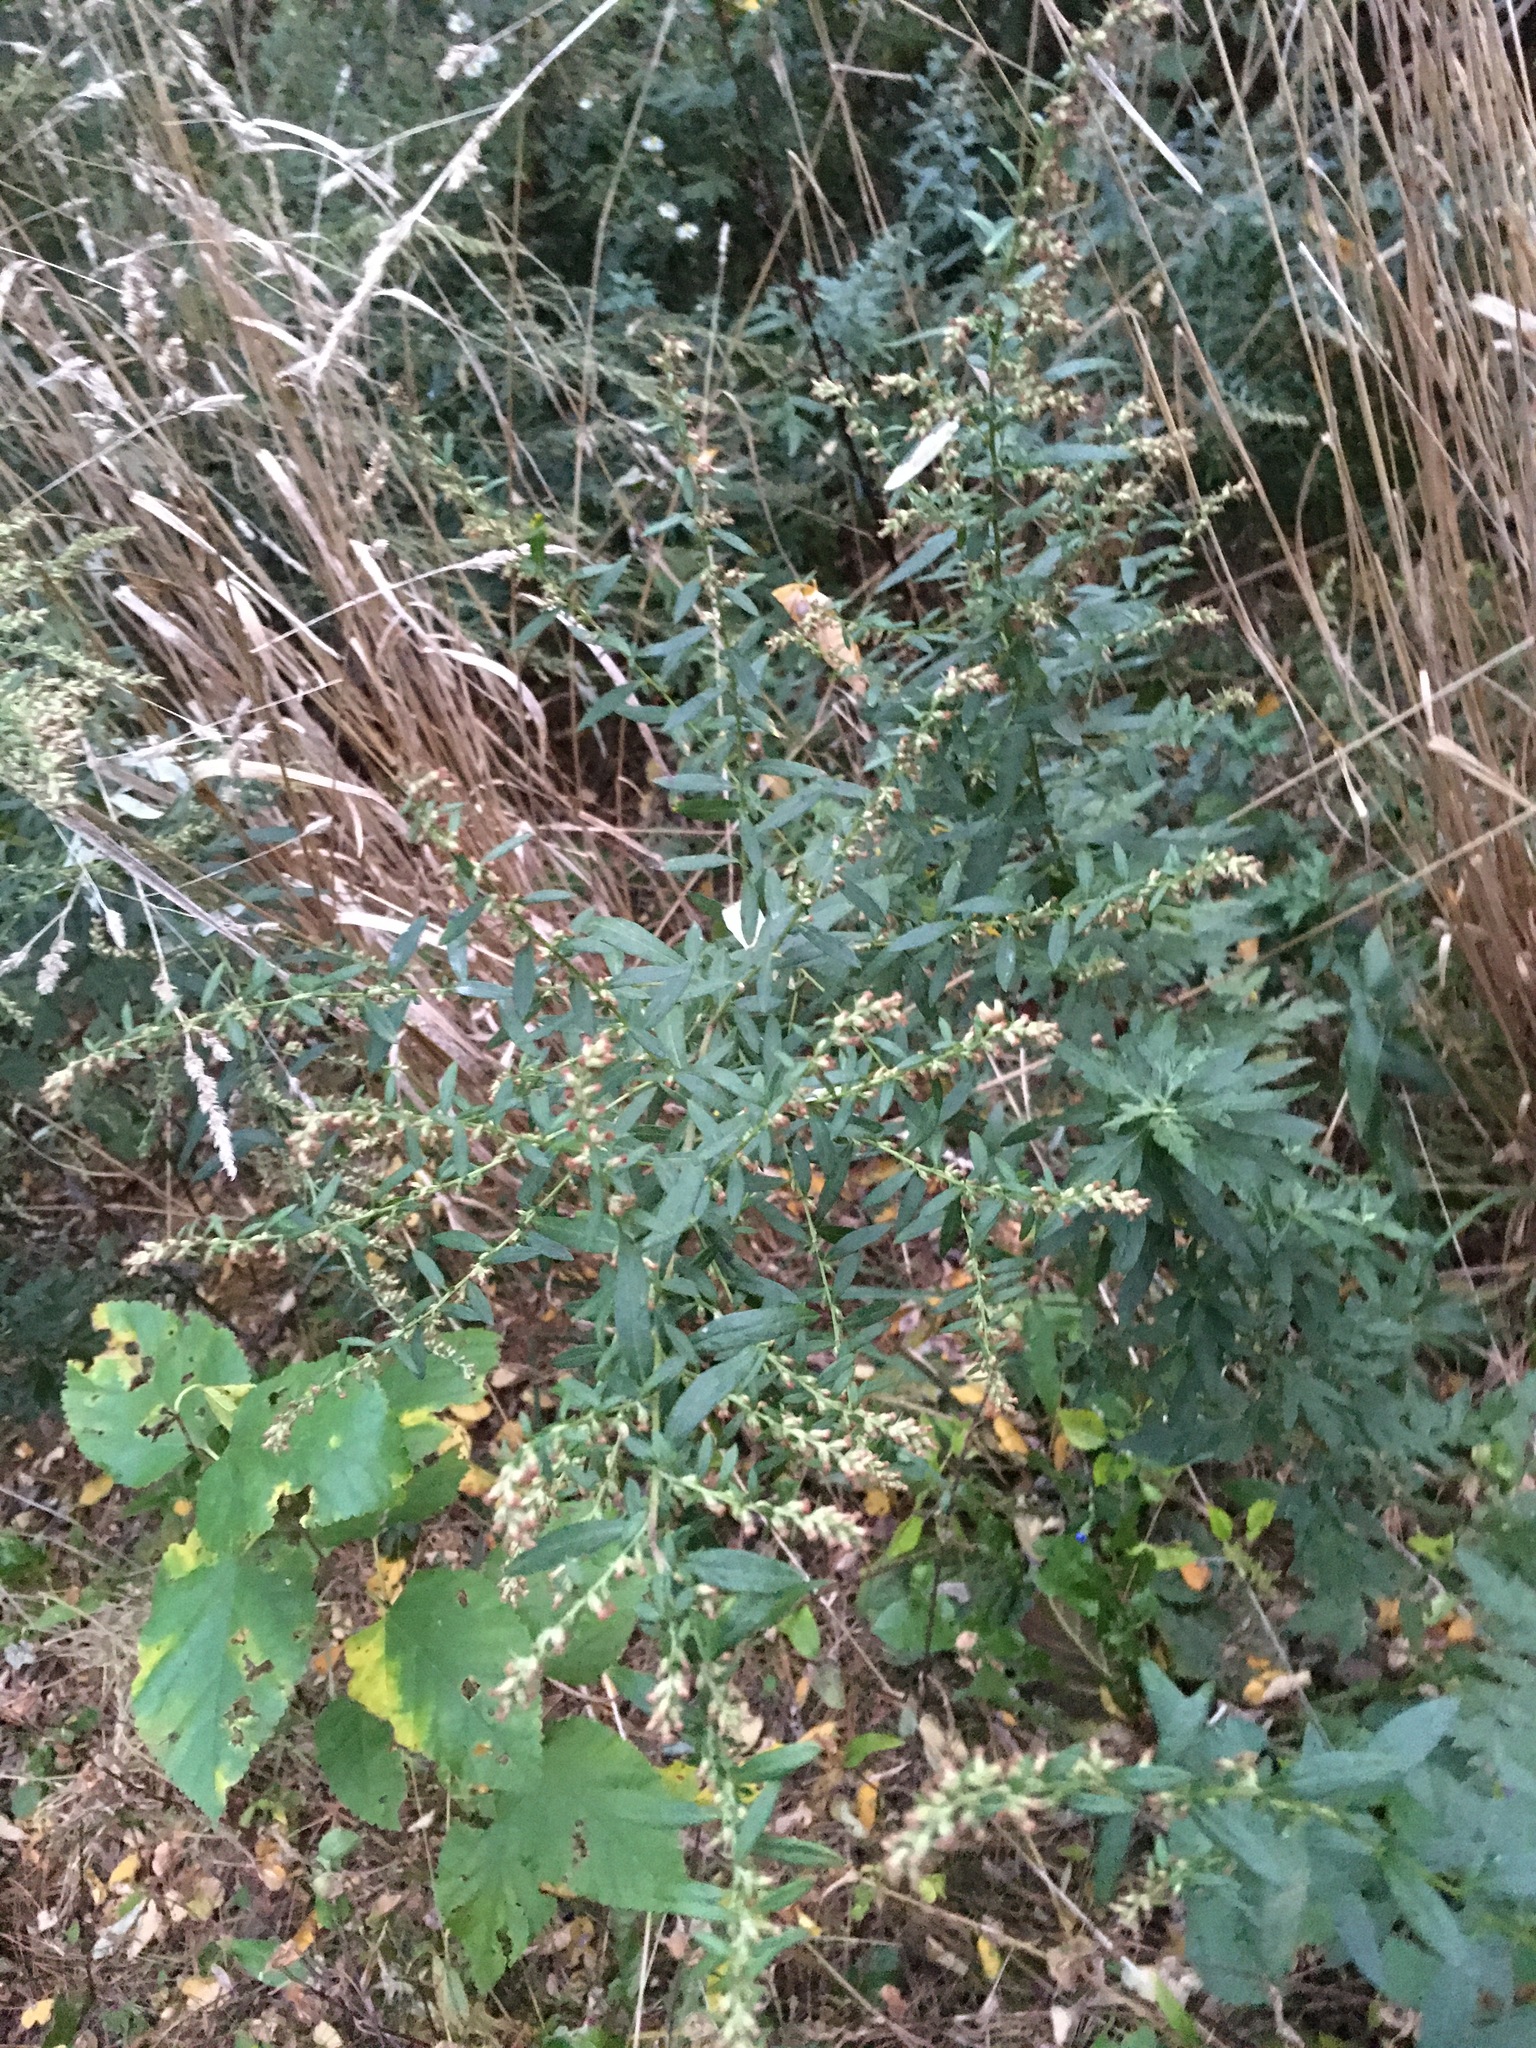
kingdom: Plantae
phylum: Tracheophyta
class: Magnoliopsida
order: Asterales
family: Asteraceae
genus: Artemisia
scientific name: Artemisia vulgaris
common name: Mugwort
